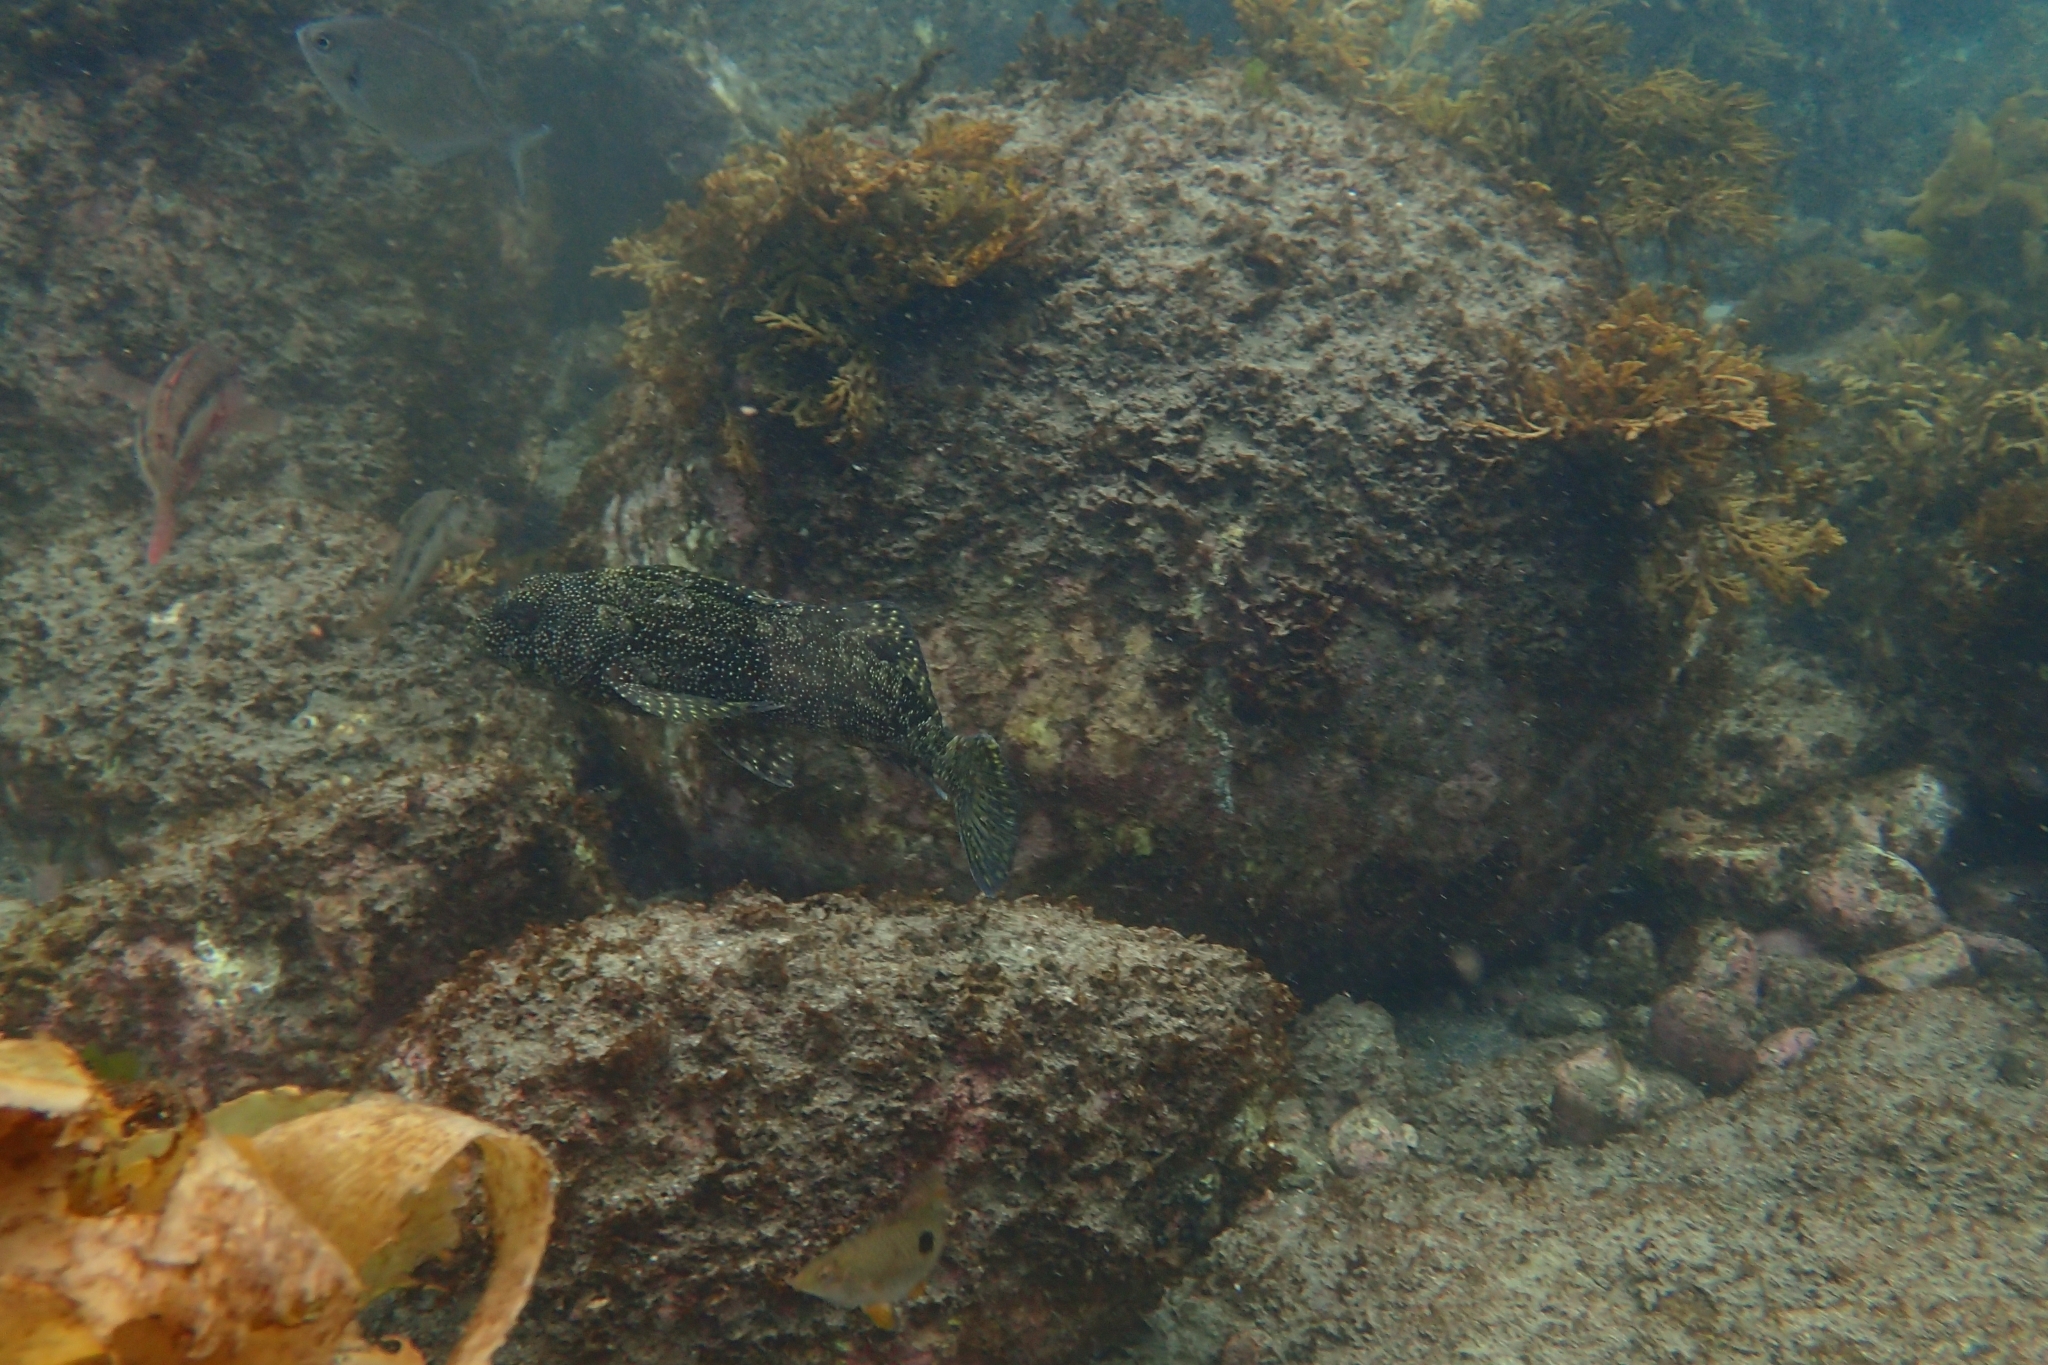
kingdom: Animalia
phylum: Chordata
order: Perciformes
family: Chironemidae
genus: Chironemus
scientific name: Chironemus marmoratus
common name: Kelpfish
